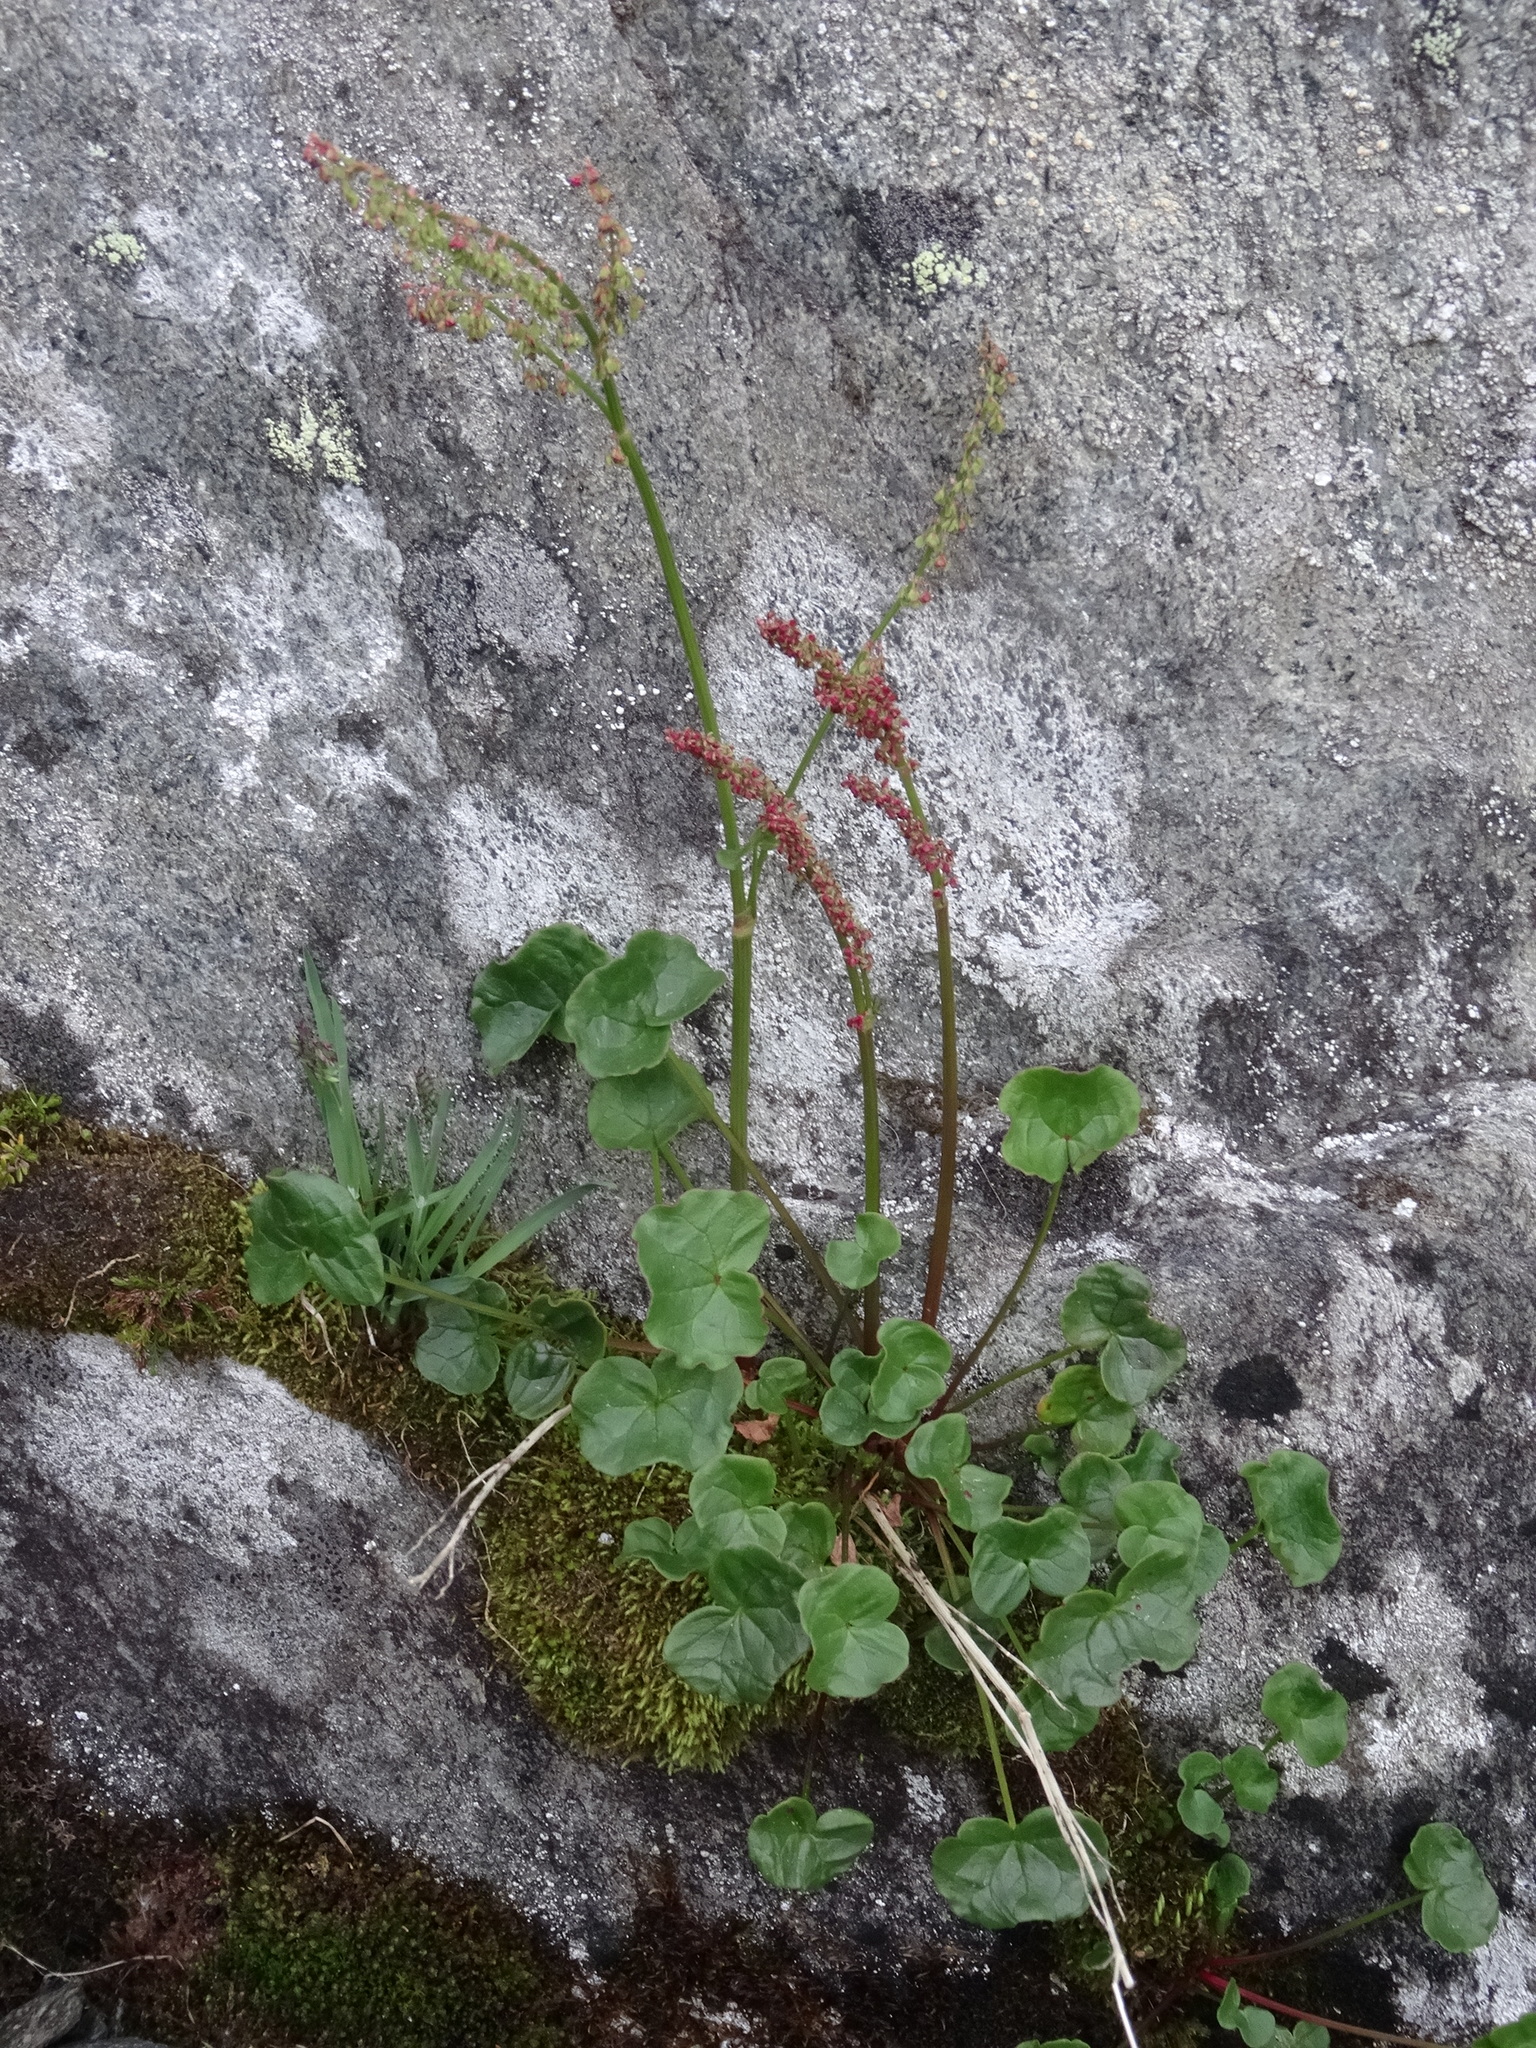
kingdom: Plantae
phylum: Tracheophyta
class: Magnoliopsida
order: Caryophyllales
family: Polygonaceae
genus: Oxyria
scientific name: Oxyria digyna
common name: Alpine mountain-sorrel
